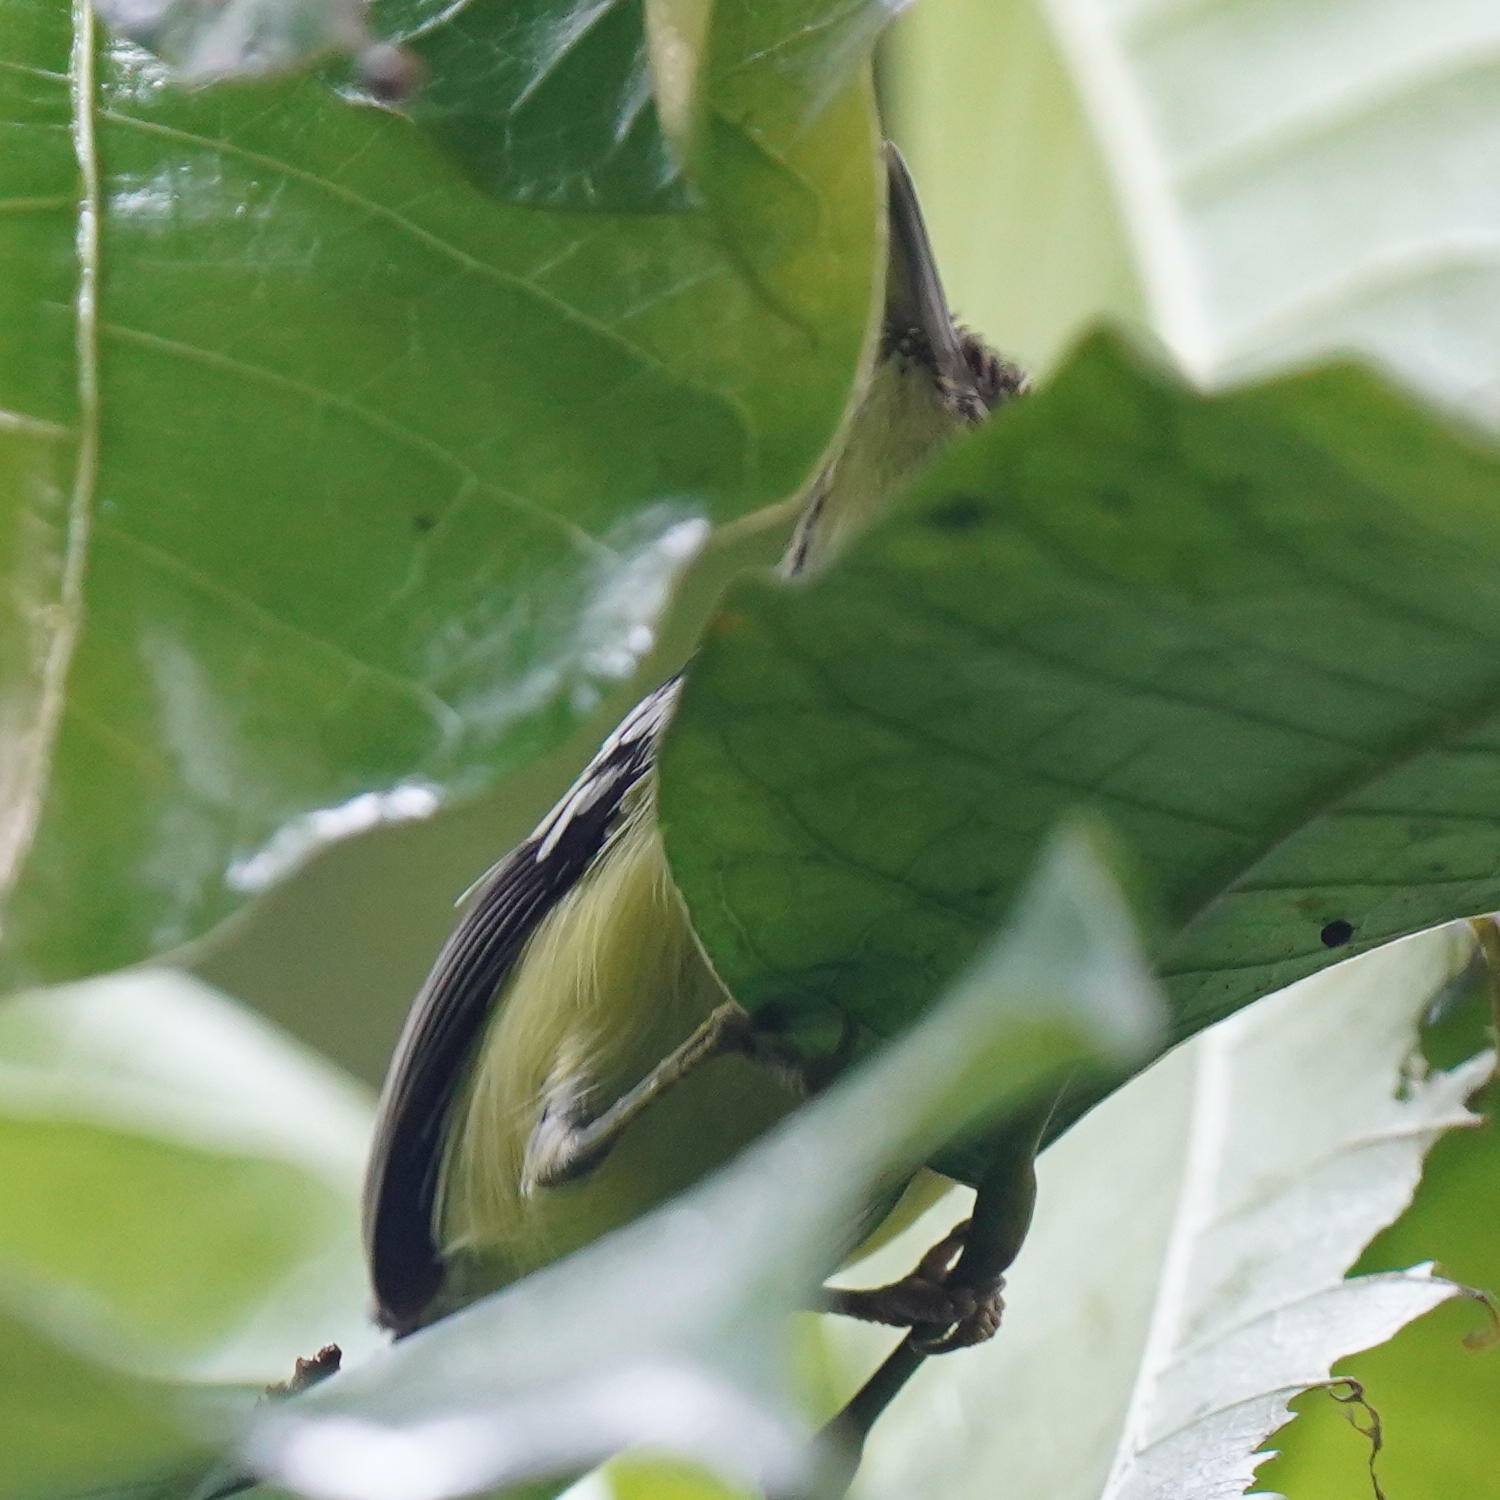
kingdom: Animalia
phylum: Chordata
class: Aves
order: Passeriformes
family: Tyrannidae
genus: Todirostrum
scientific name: Todirostrum cinereum
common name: Common tody-flycatcher
